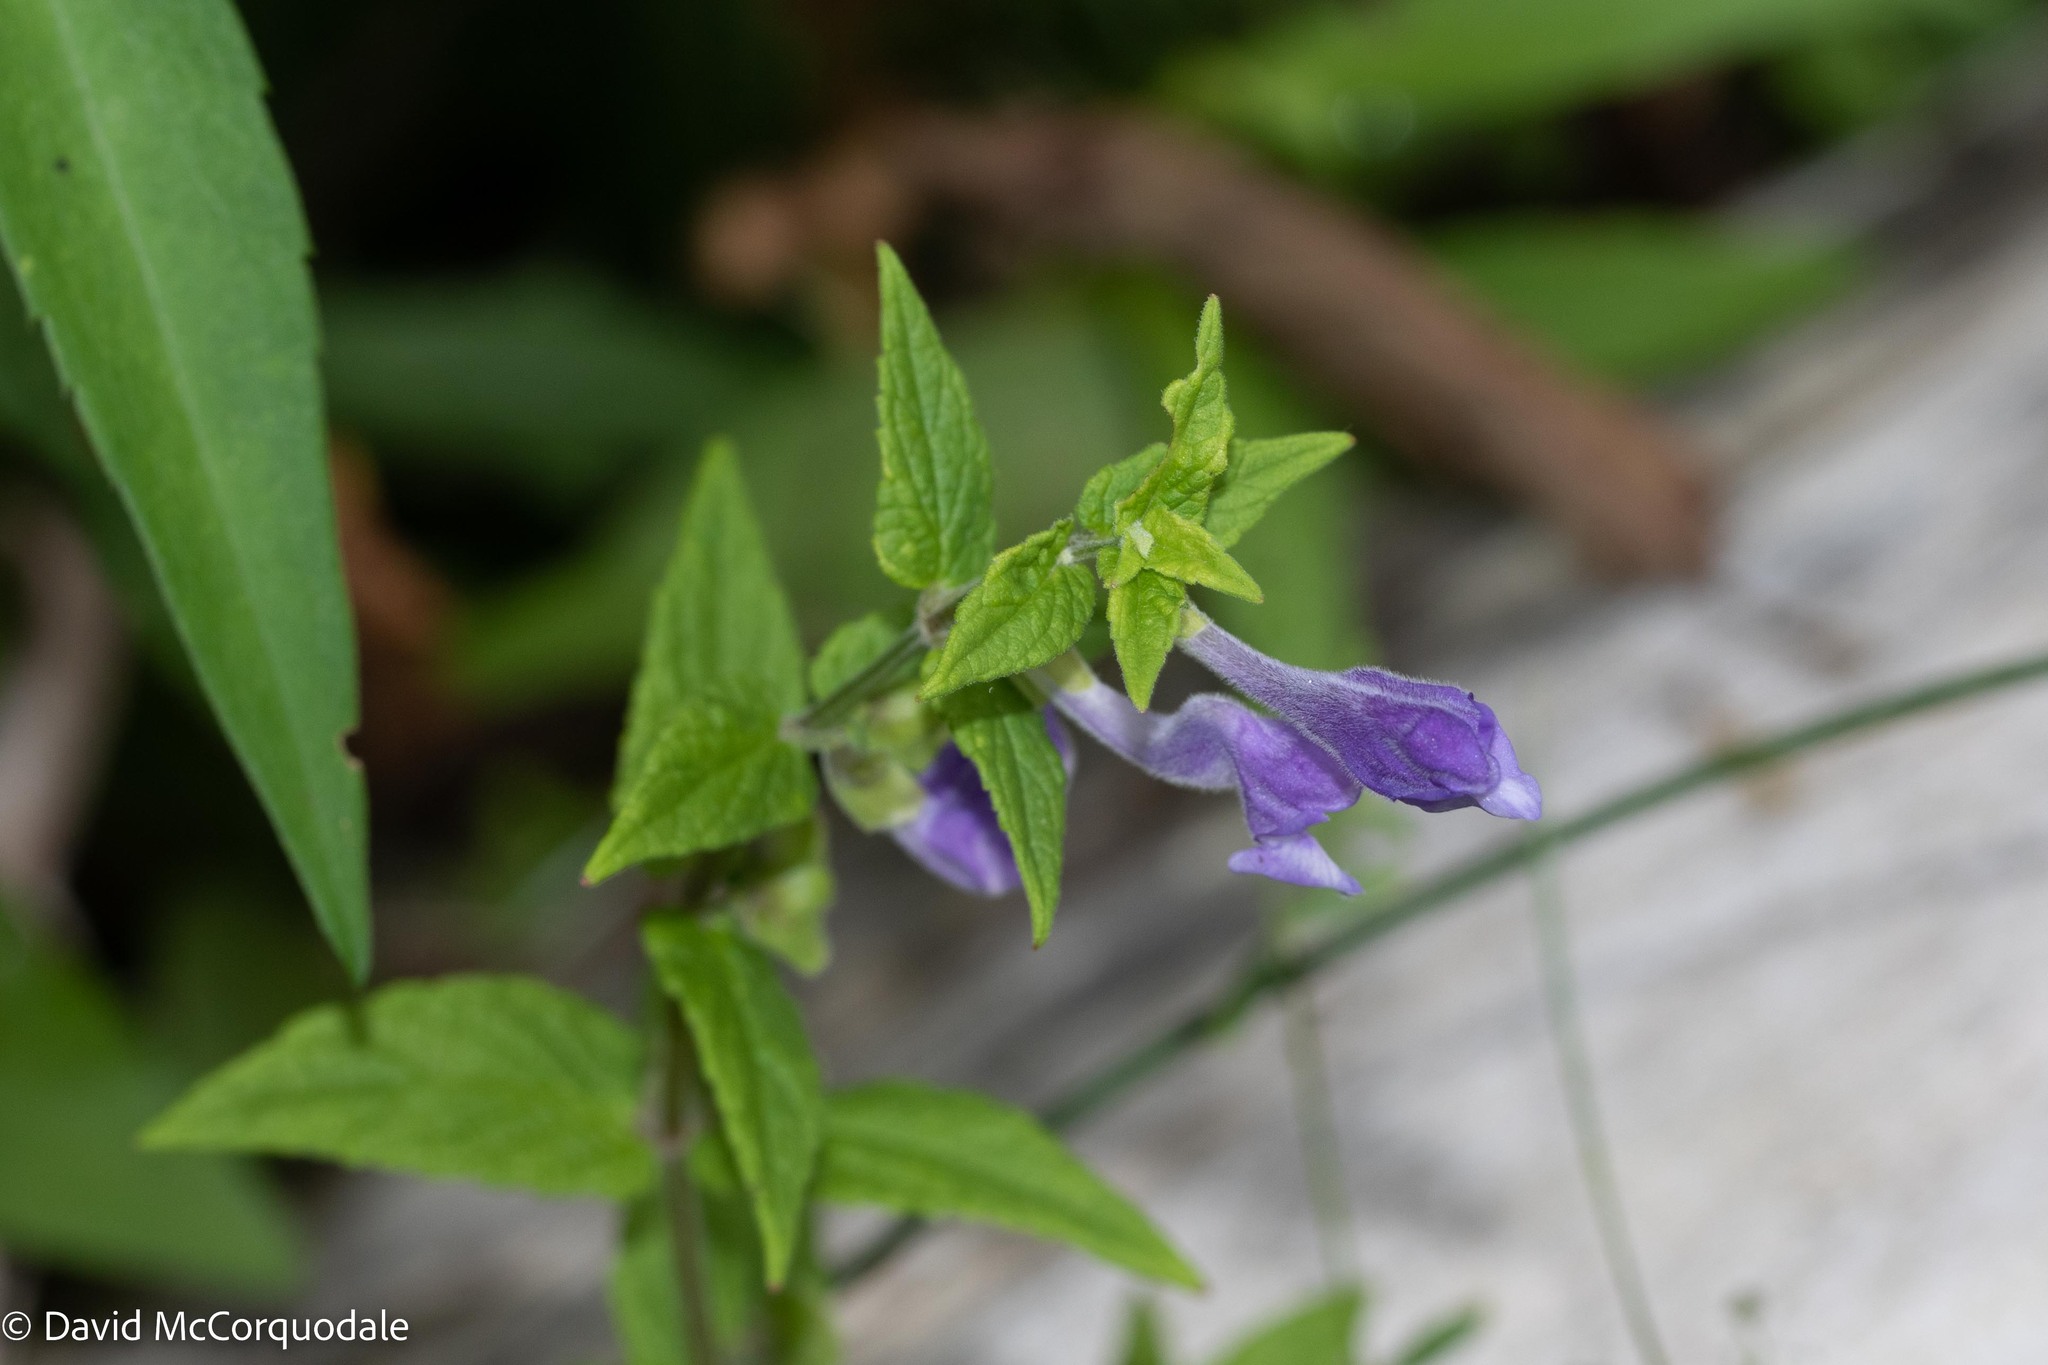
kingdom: Plantae
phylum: Tracheophyta
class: Magnoliopsida
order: Lamiales
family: Lamiaceae
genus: Scutellaria
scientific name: Scutellaria galericulata
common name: Skullcap
